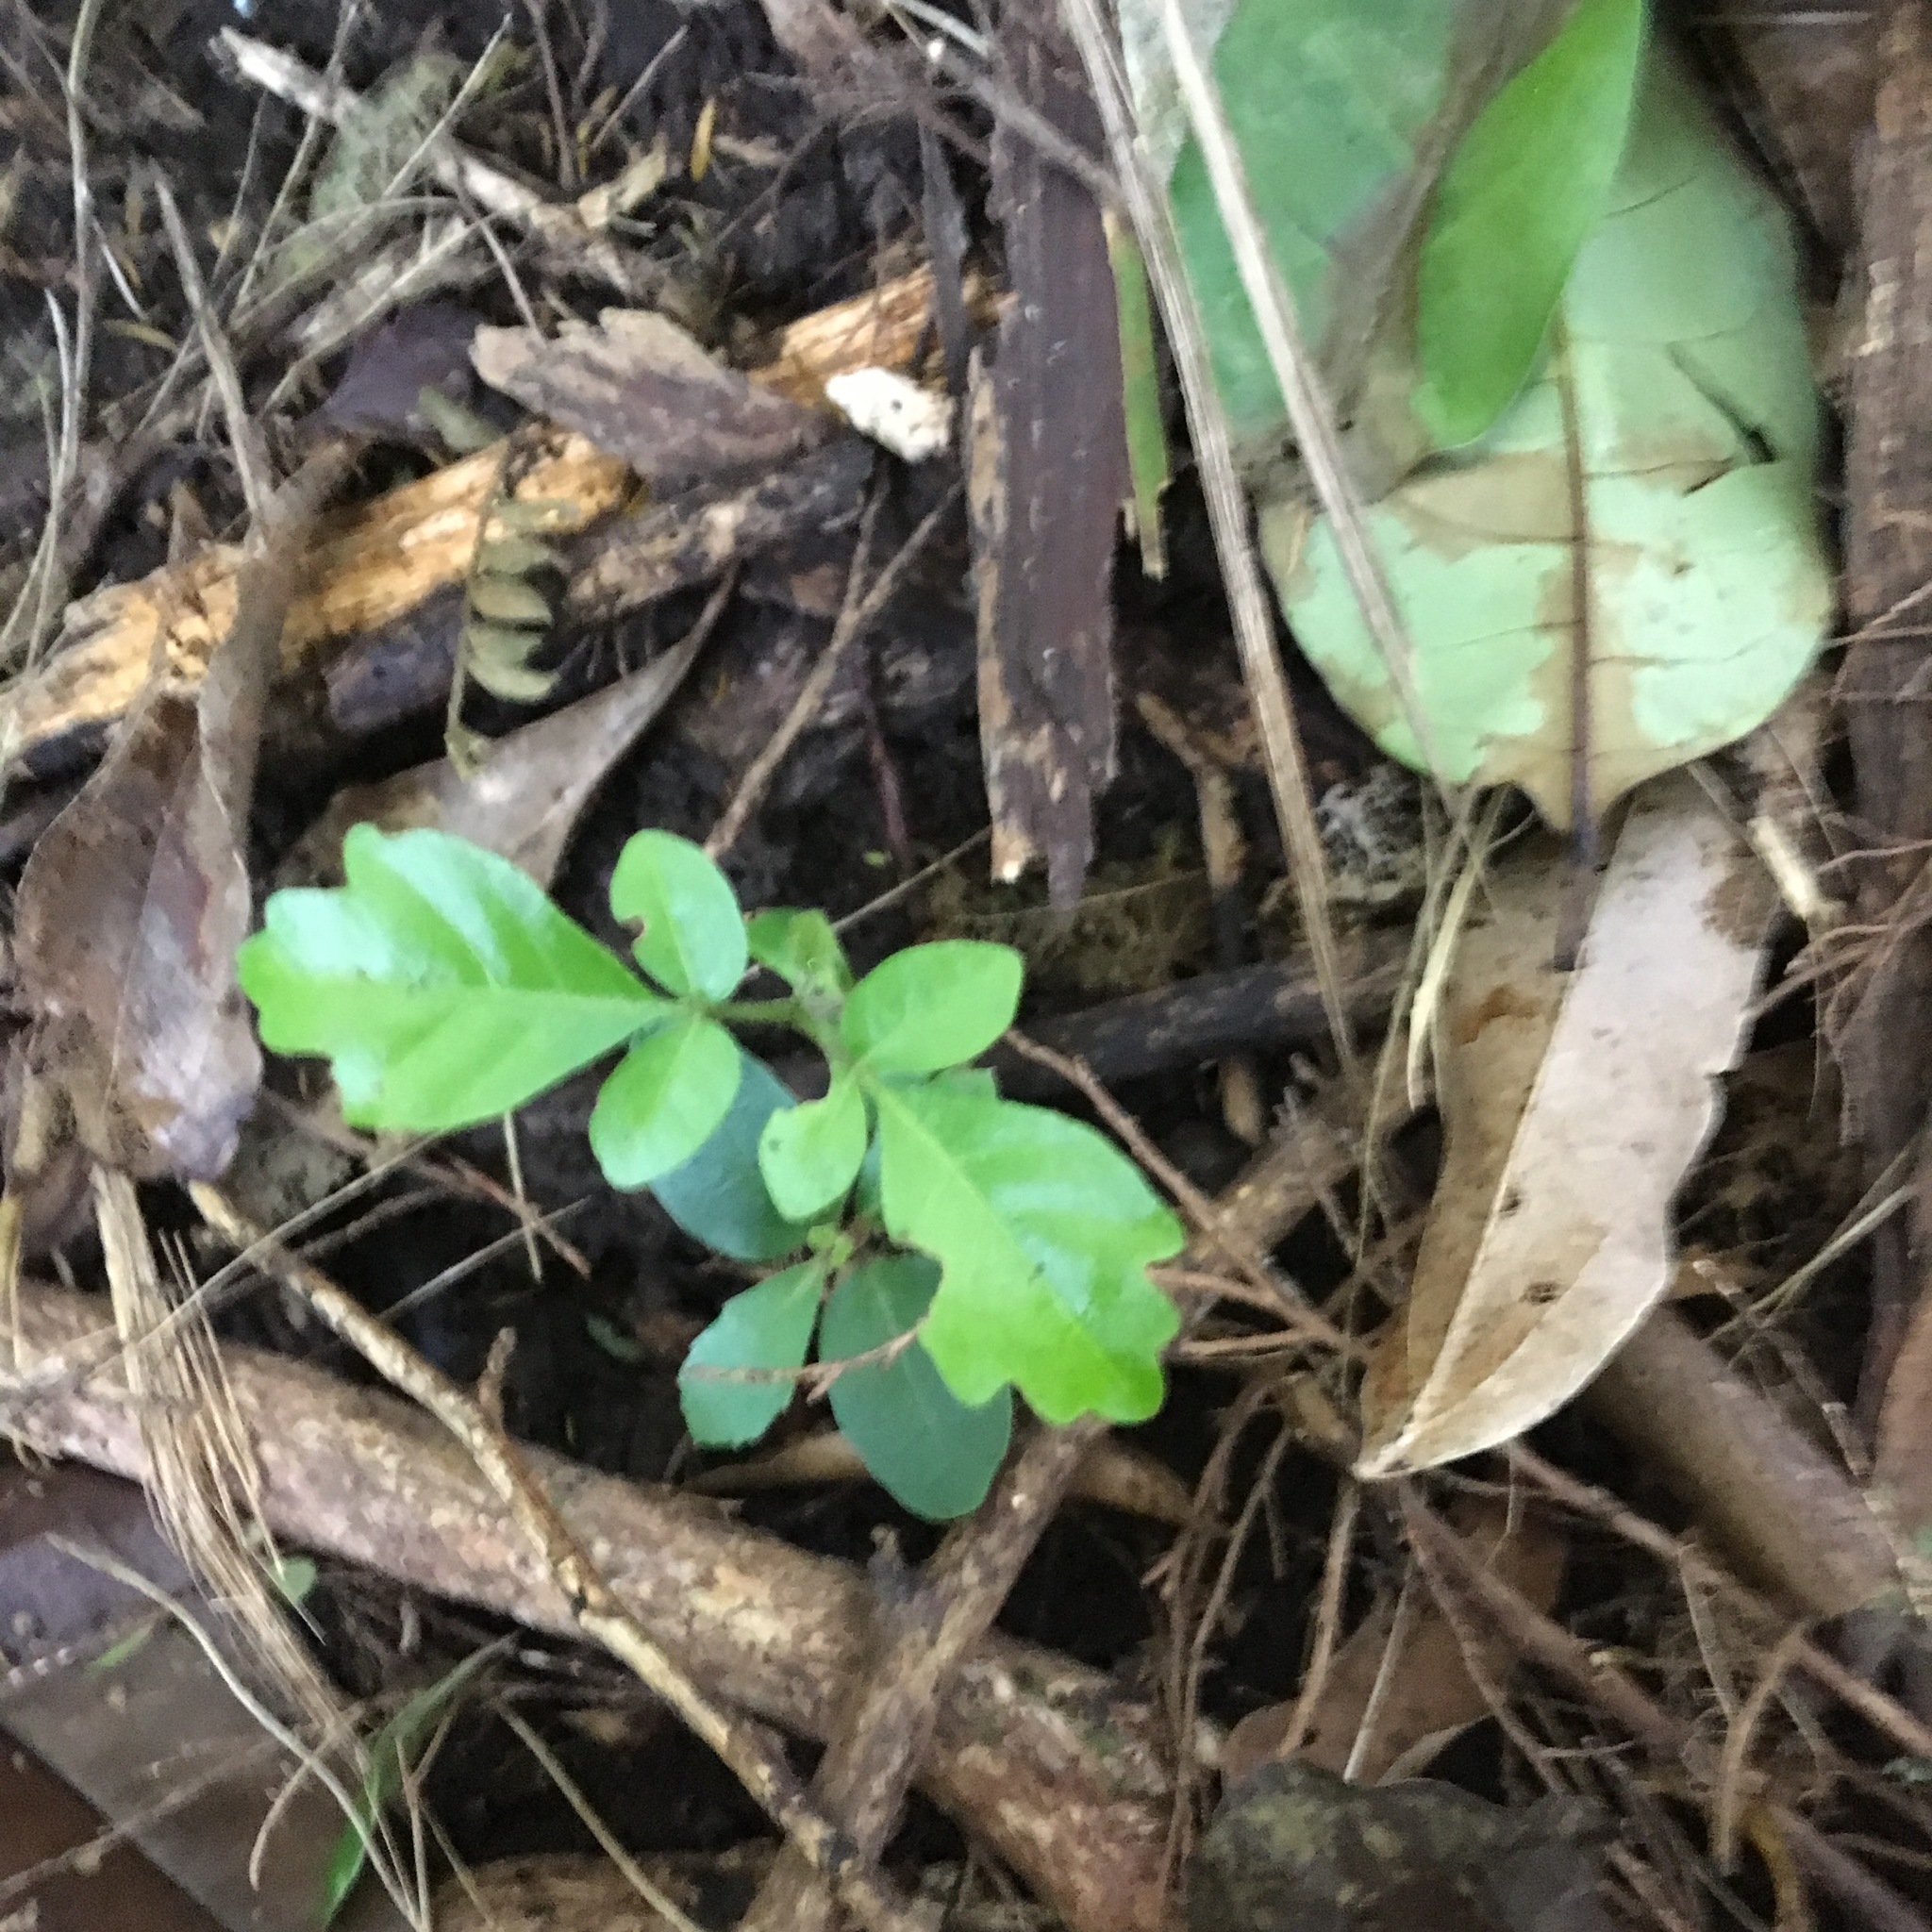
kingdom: Plantae
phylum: Tracheophyta
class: Magnoliopsida
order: Lamiales
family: Lamiaceae
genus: Vitex
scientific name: Vitex lucens
